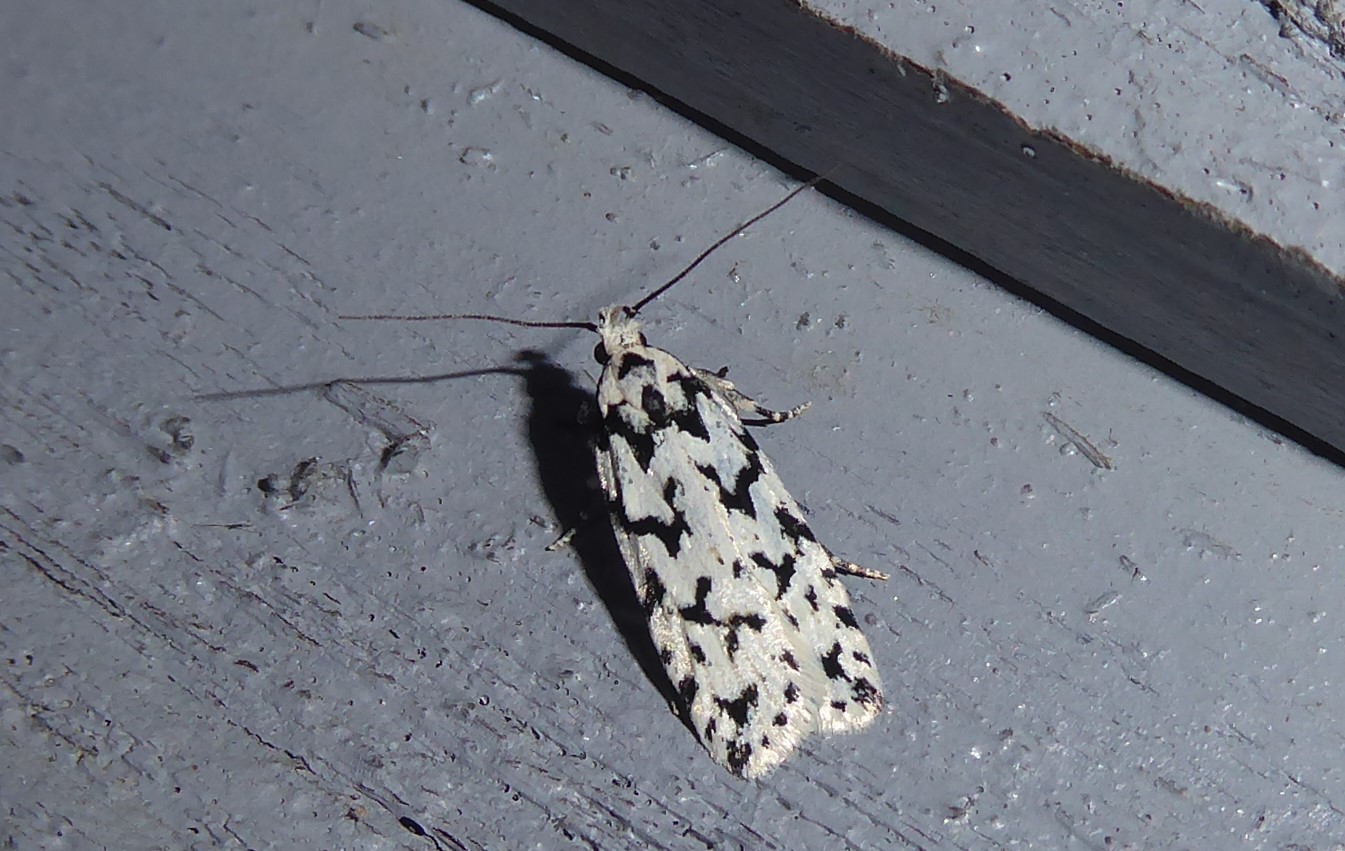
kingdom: Animalia
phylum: Arthropoda
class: Insecta
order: Lepidoptera
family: Oecophoridae
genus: Izatha
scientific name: Izatha katadiktya
